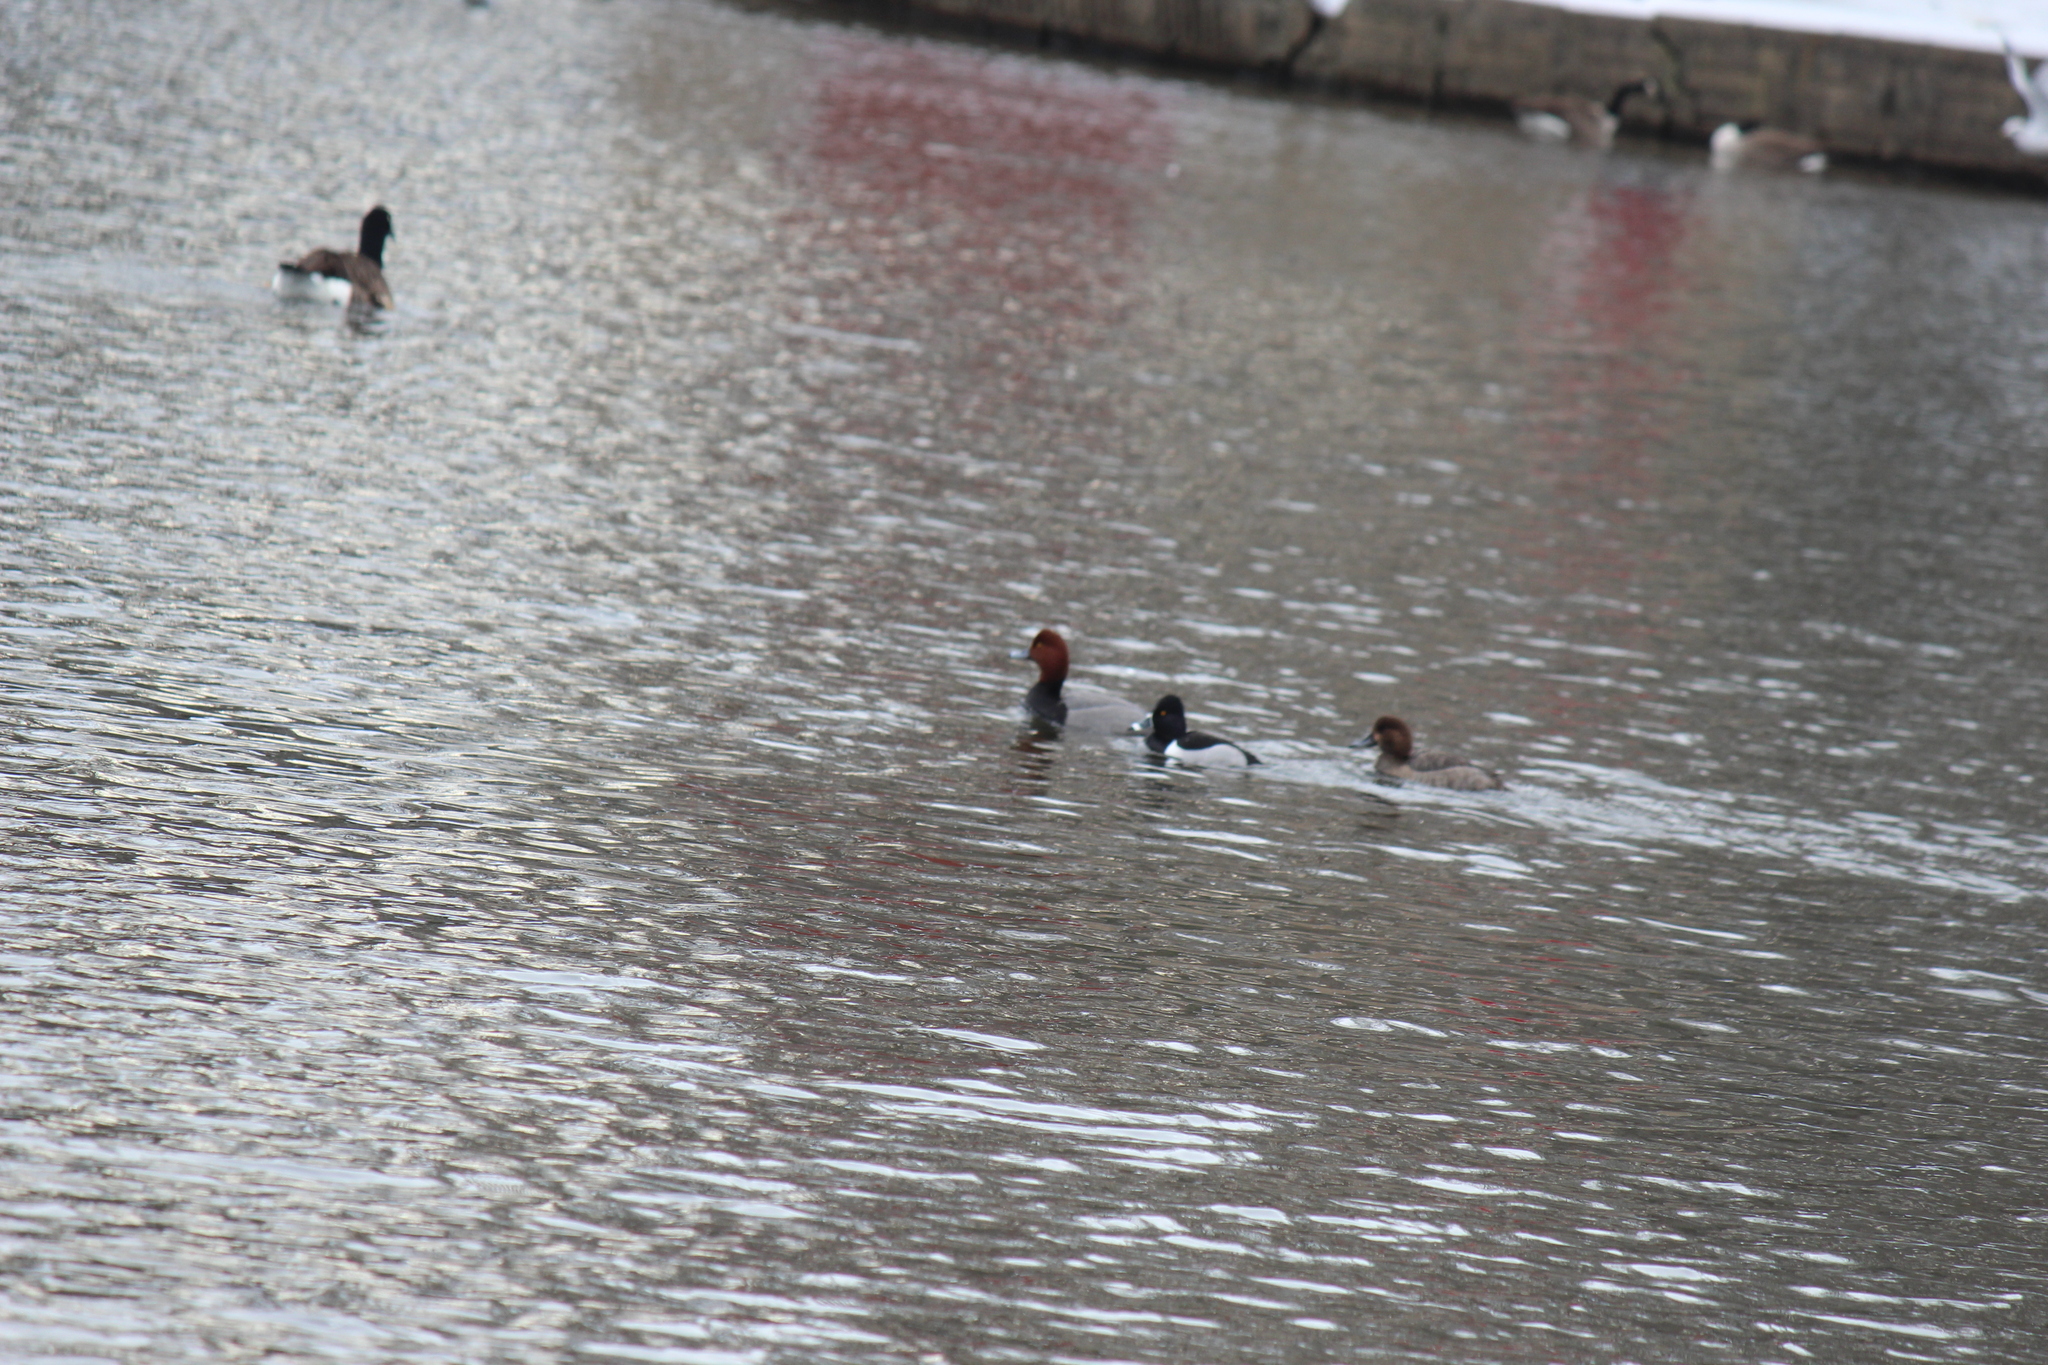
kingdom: Animalia
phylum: Chordata
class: Aves
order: Anseriformes
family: Anatidae
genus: Aythya
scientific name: Aythya collaris
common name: Ring-necked duck
